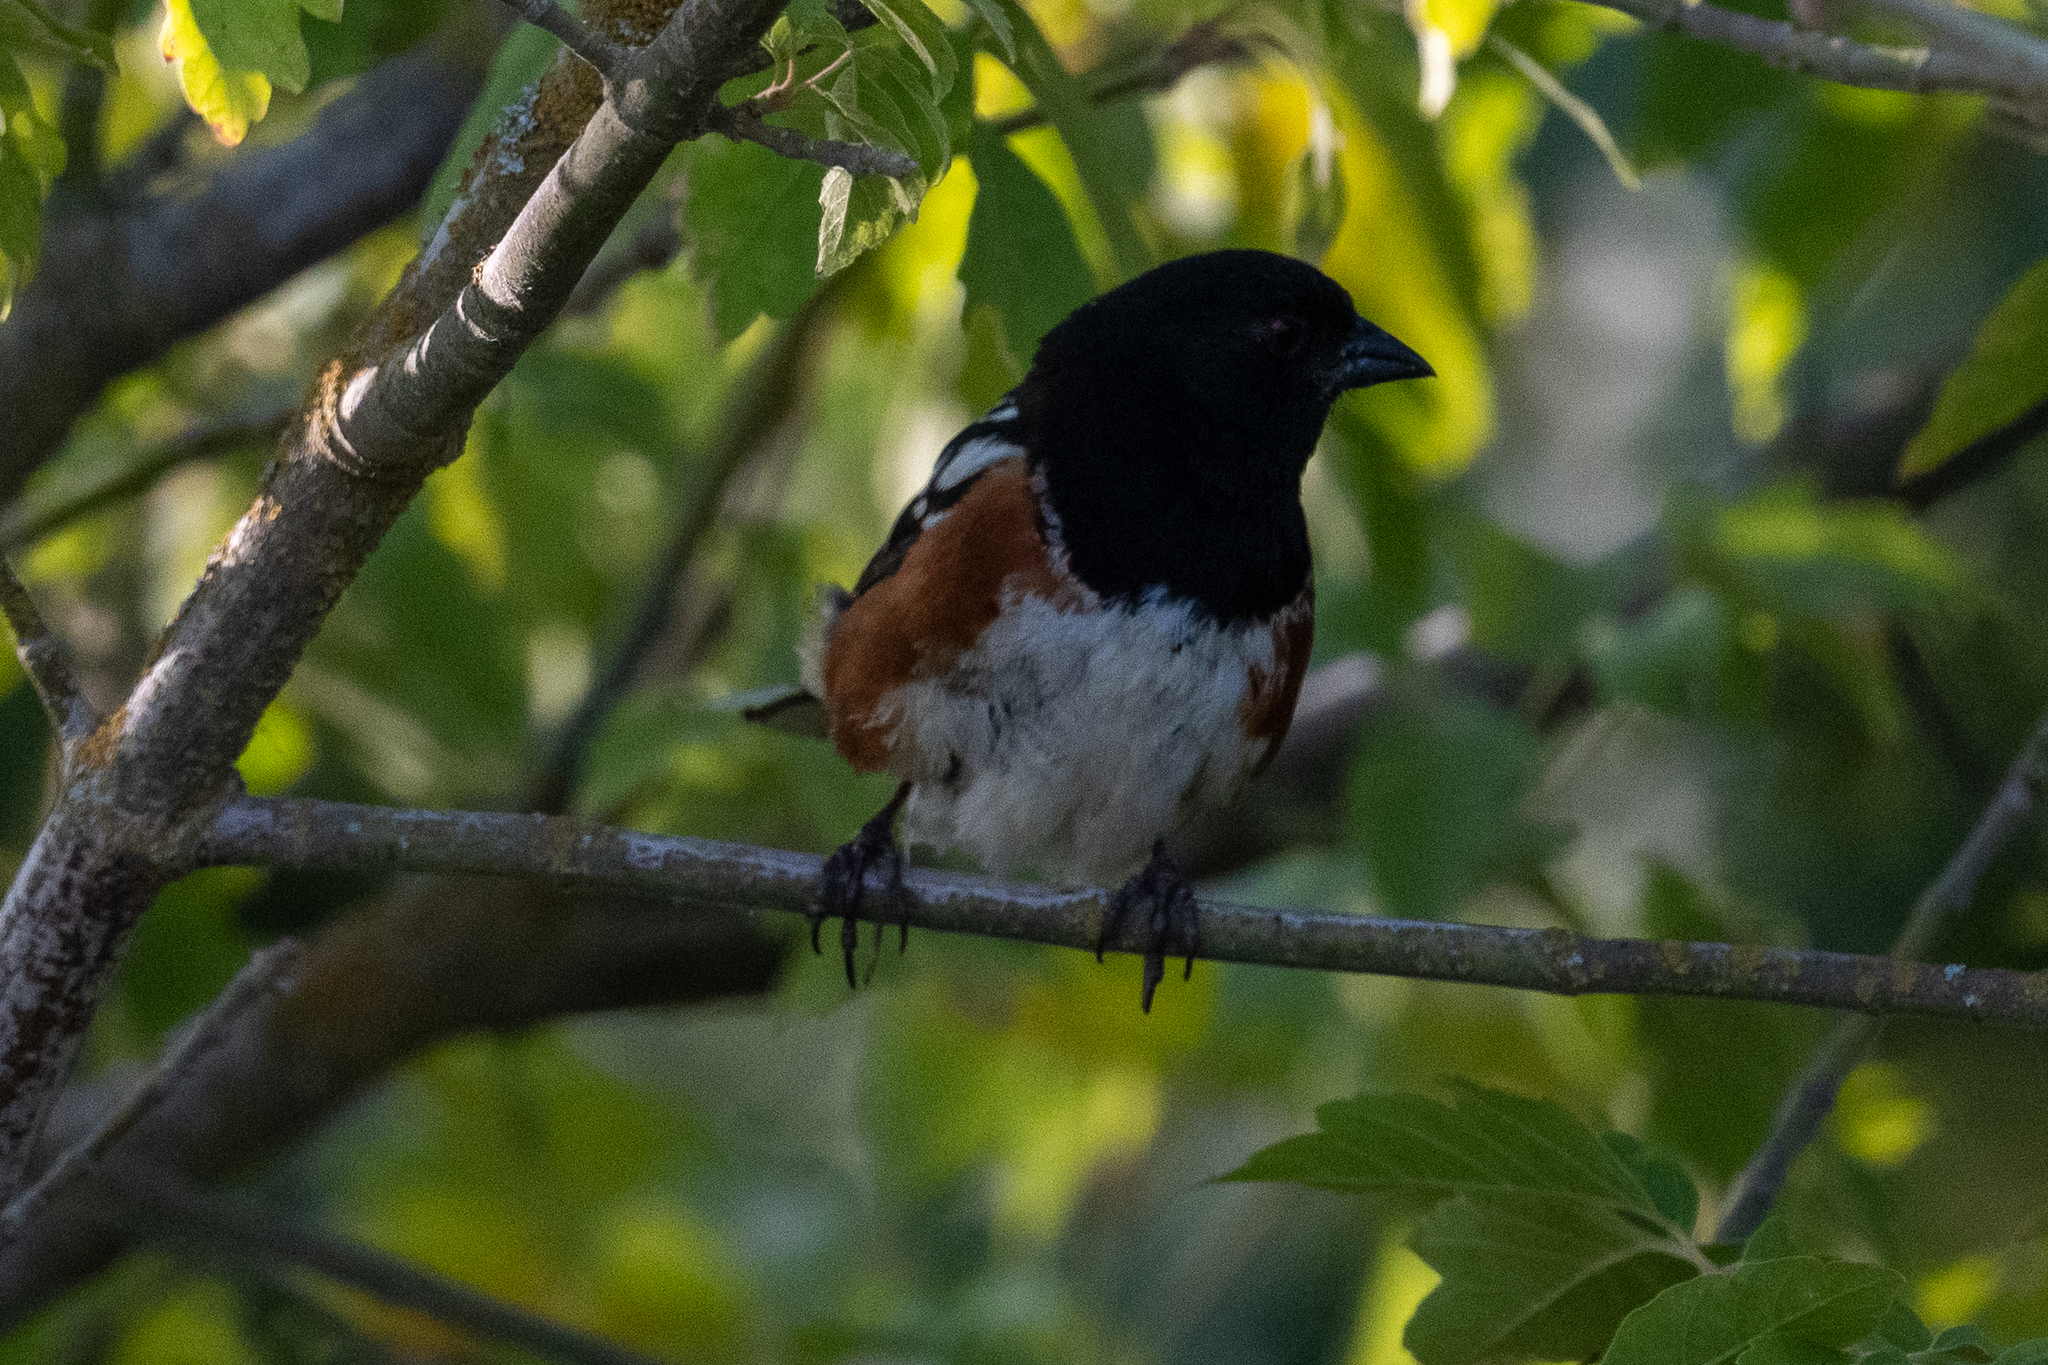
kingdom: Animalia
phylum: Chordata
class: Aves
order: Passeriformes
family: Passerellidae
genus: Pipilo
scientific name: Pipilo maculatus
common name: Spotted towhee
